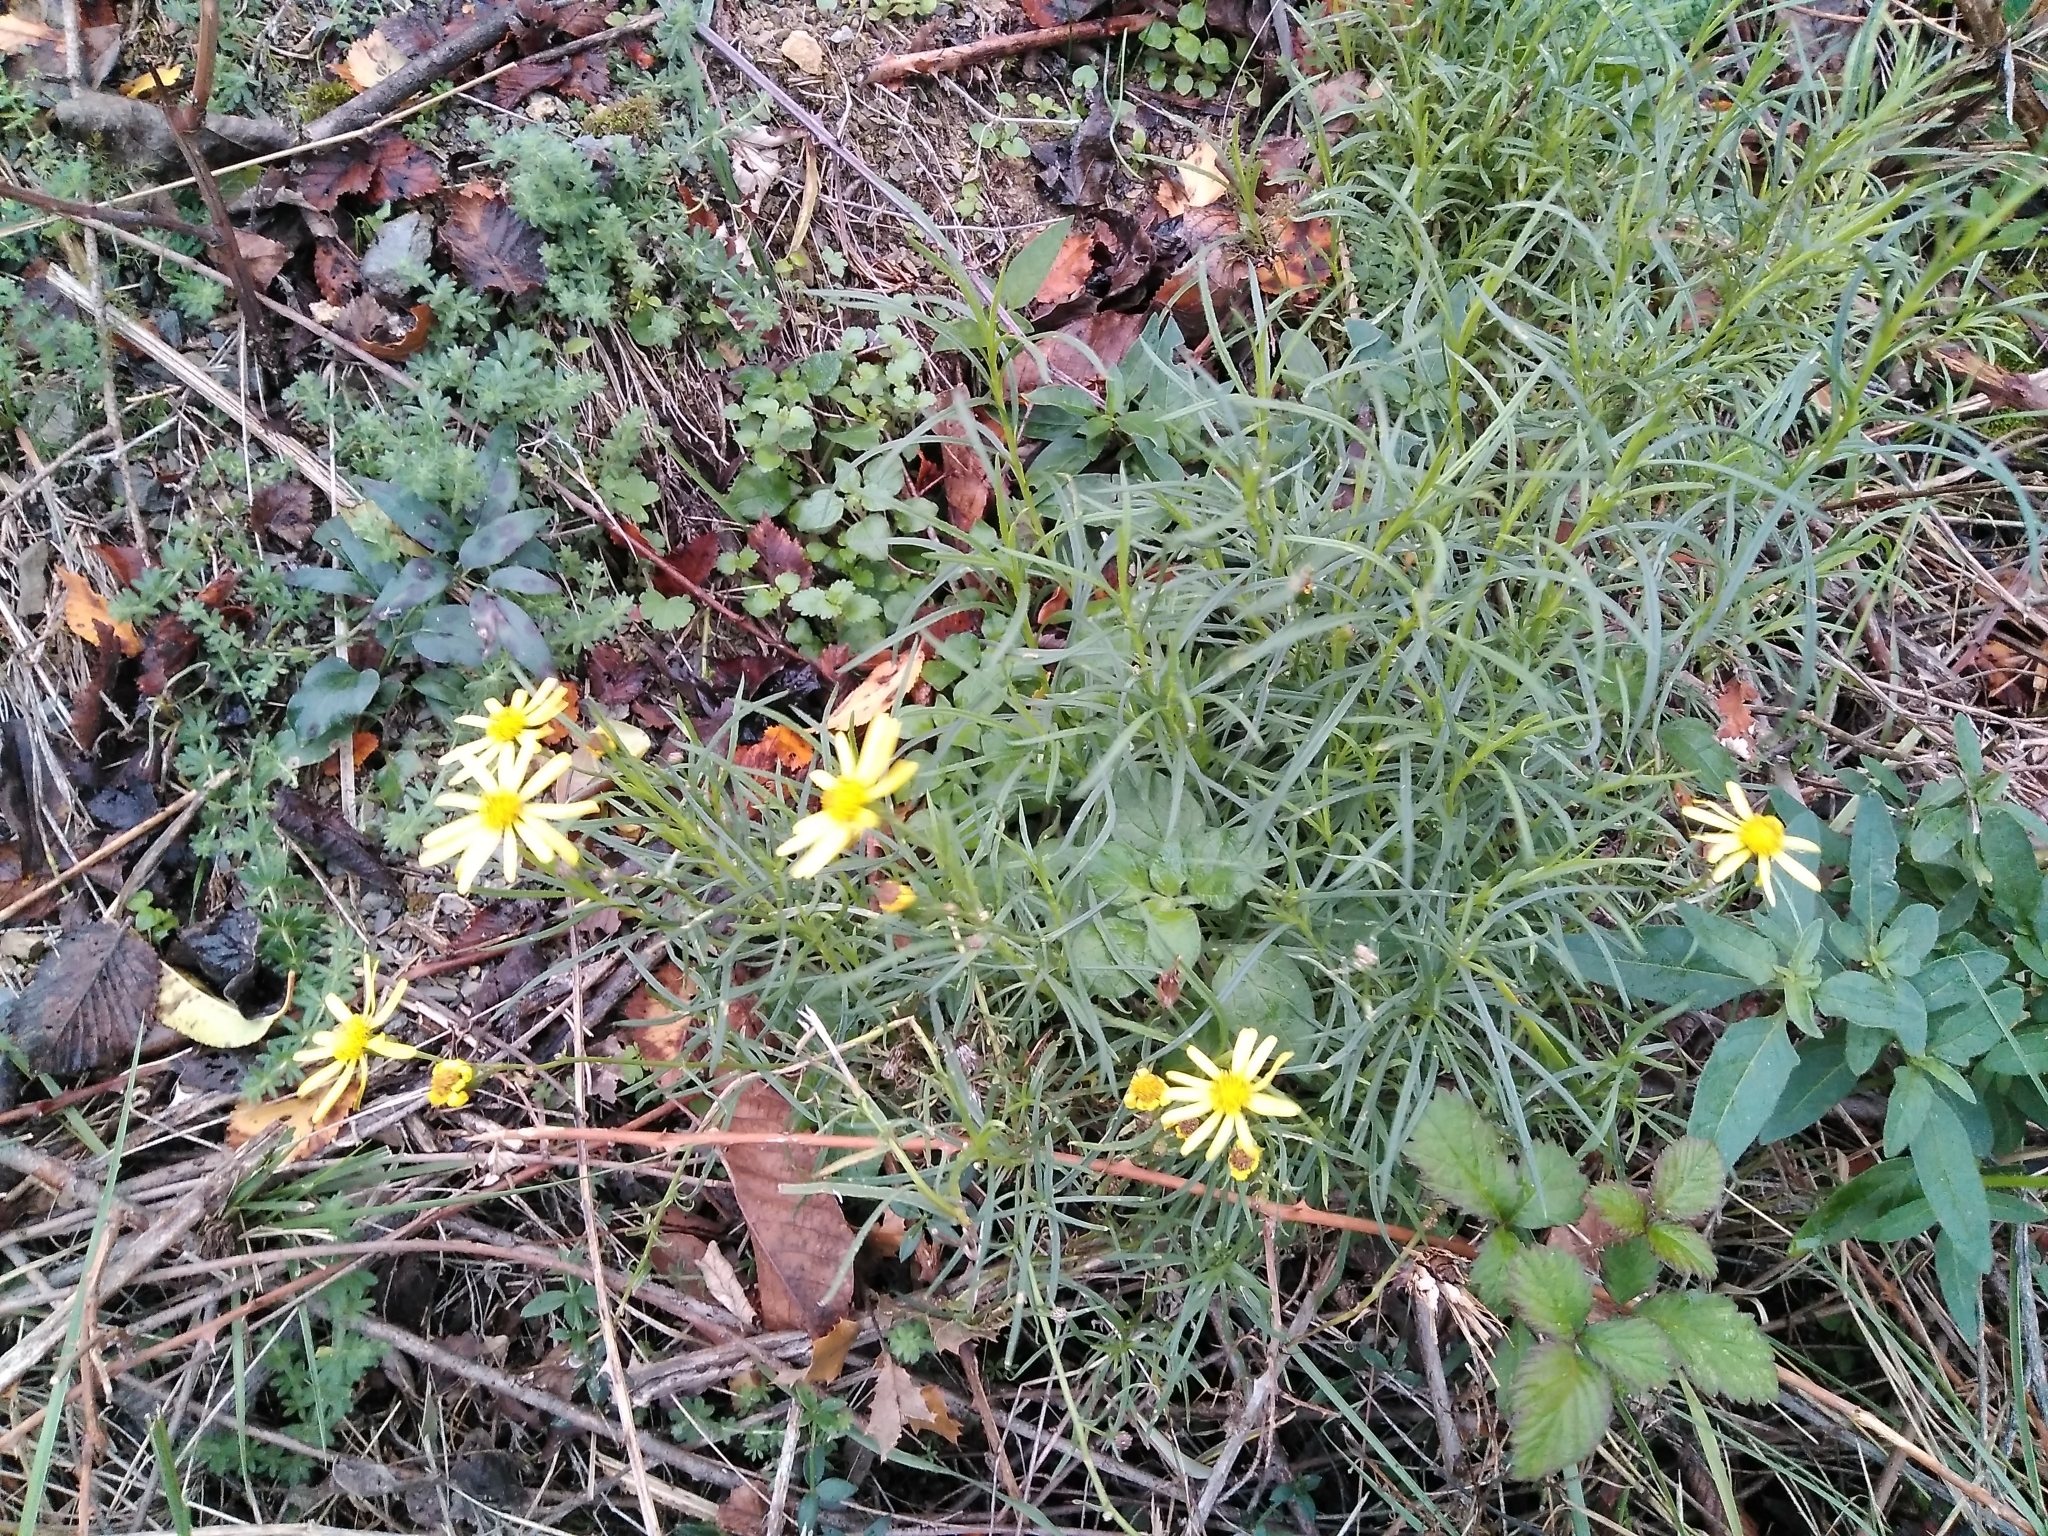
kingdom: Plantae
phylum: Tracheophyta
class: Magnoliopsida
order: Asterales
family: Asteraceae
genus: Senecio
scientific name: Senecio inaequidens
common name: Narrow-leaved ragwort
